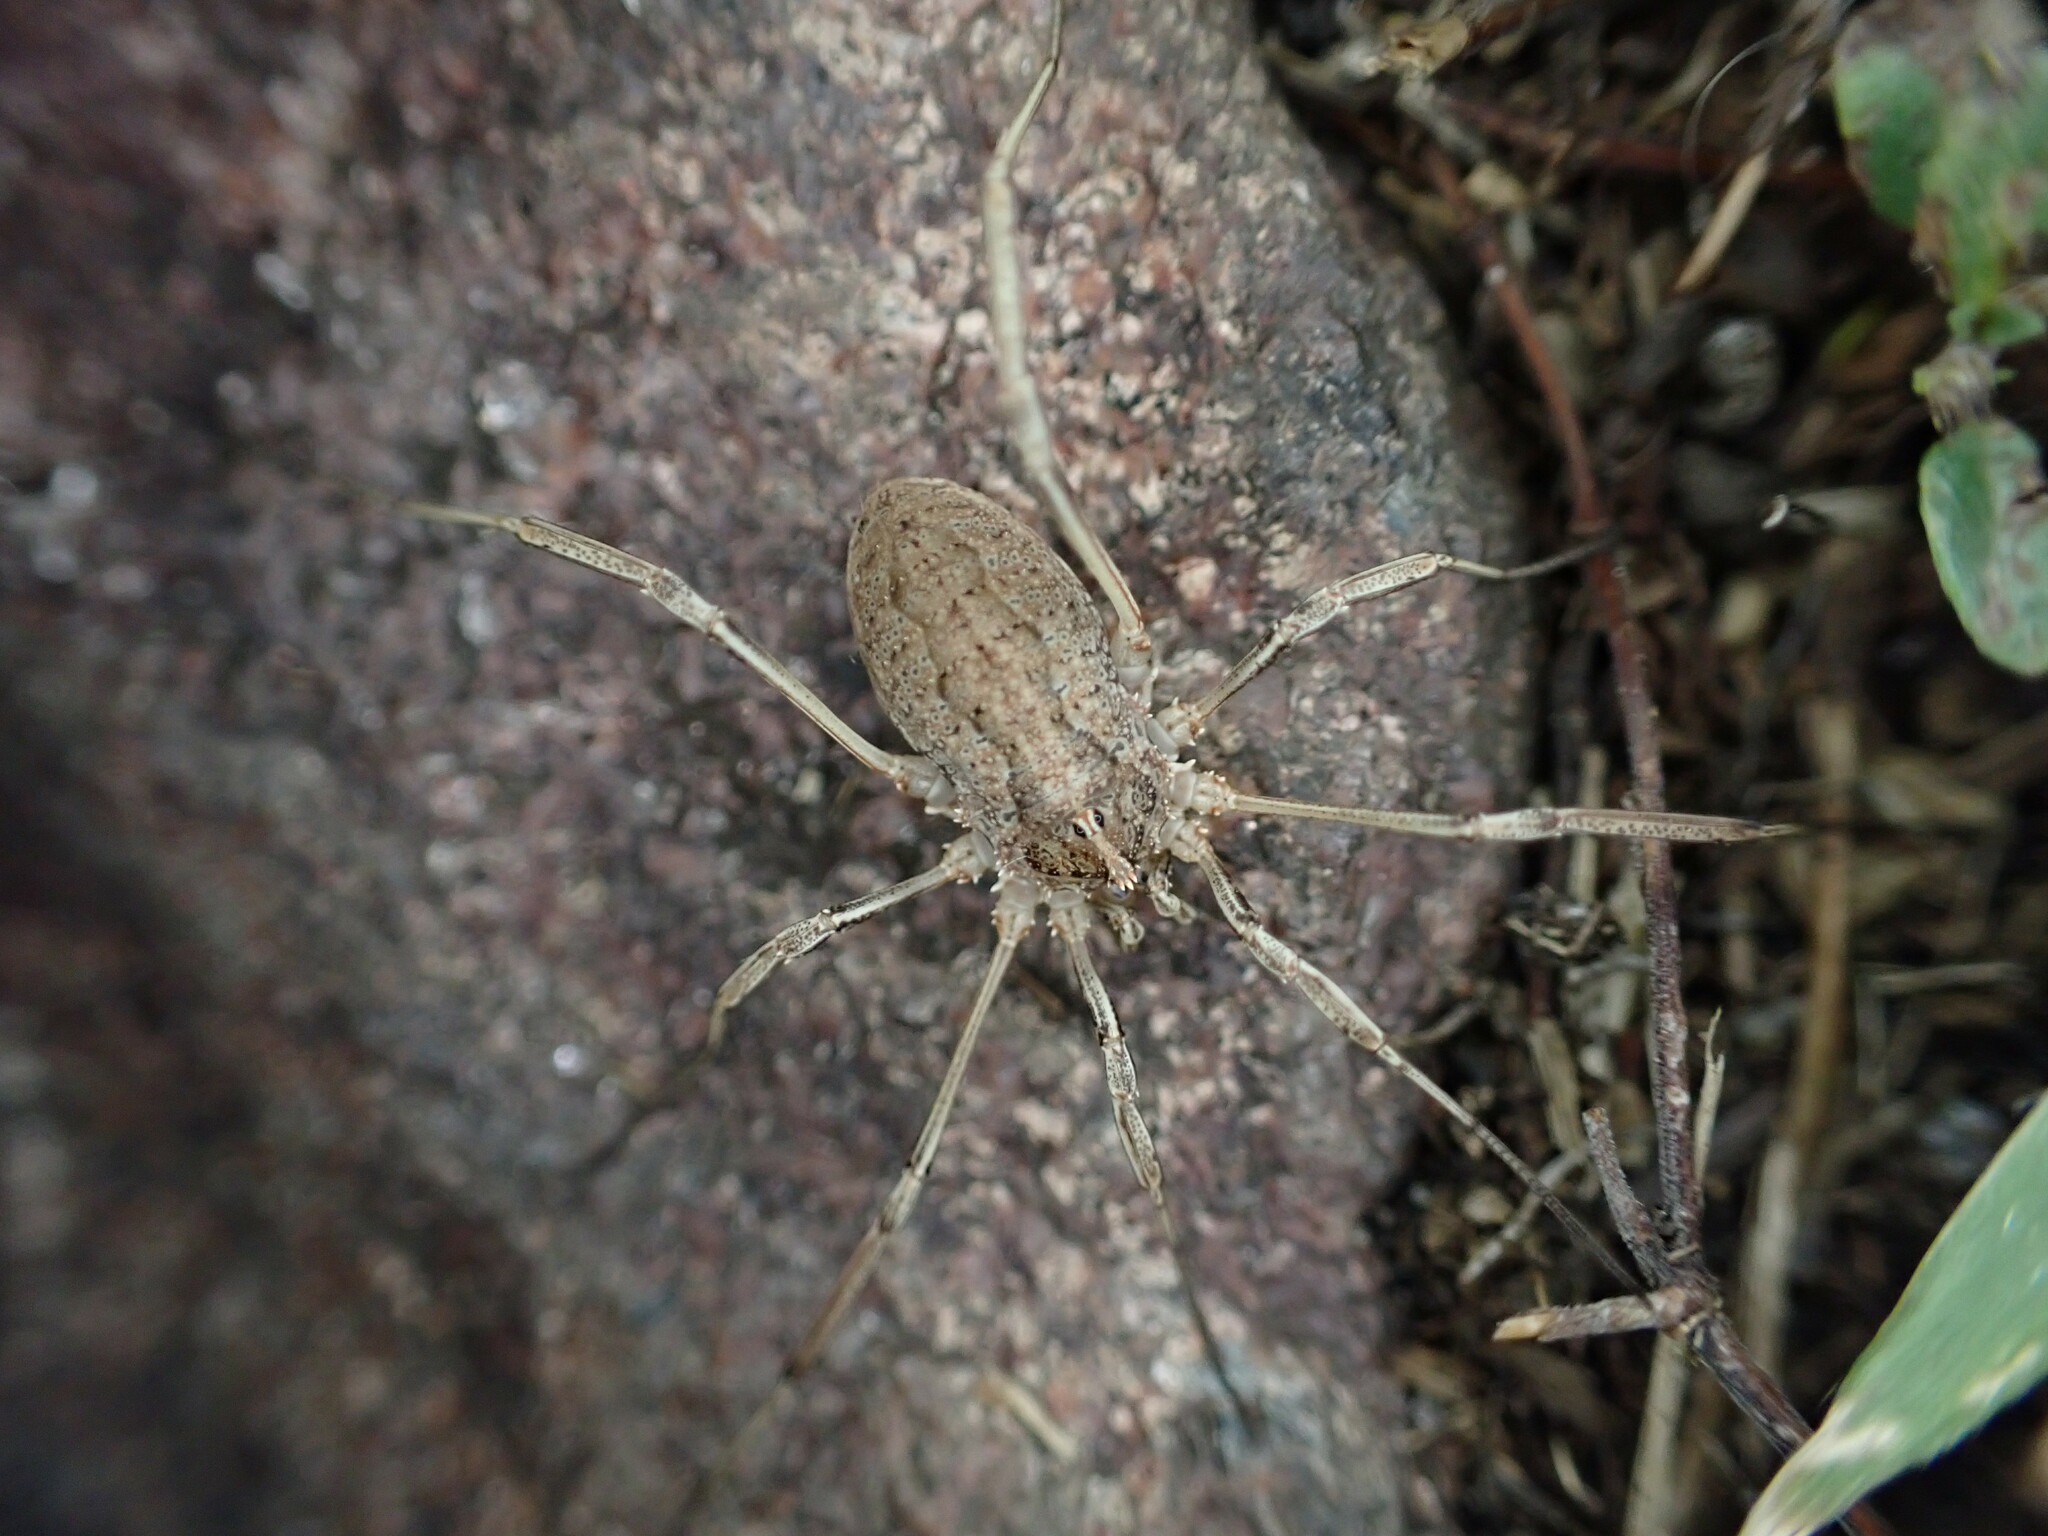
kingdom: Animalia
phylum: Arthropoda
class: Arachnida
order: Opiliones
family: Phalangiidae
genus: Odiellus
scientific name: Odiellus troguloides
